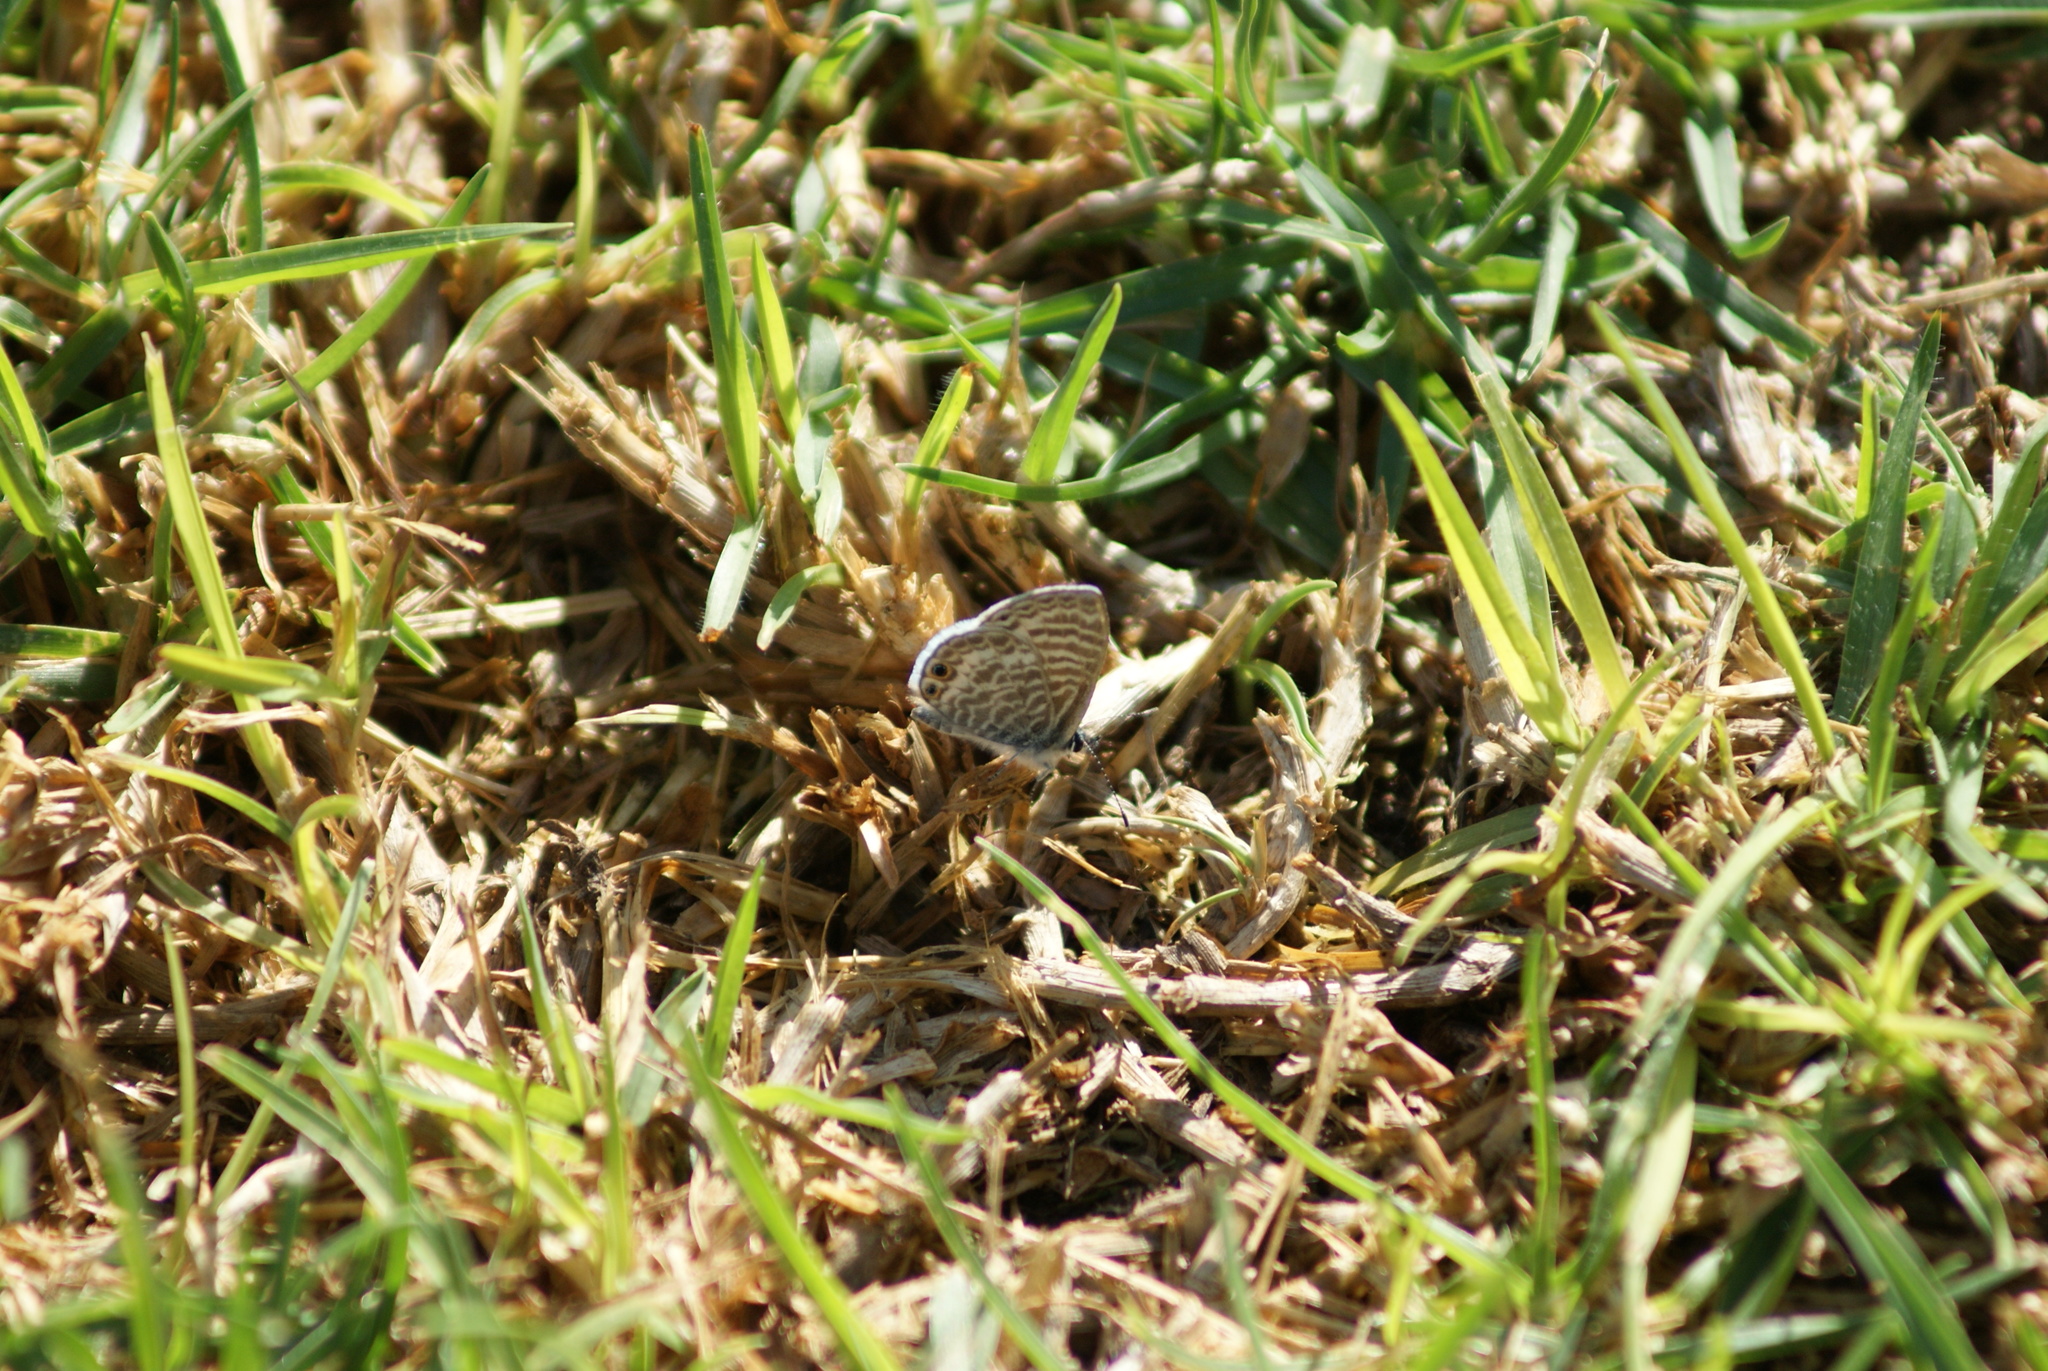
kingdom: Animalia
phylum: Arthropoda
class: Insecta
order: Lepidoptera
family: Lycaenidae
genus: Leptotes
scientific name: Leptotes marina
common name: Marine blue
